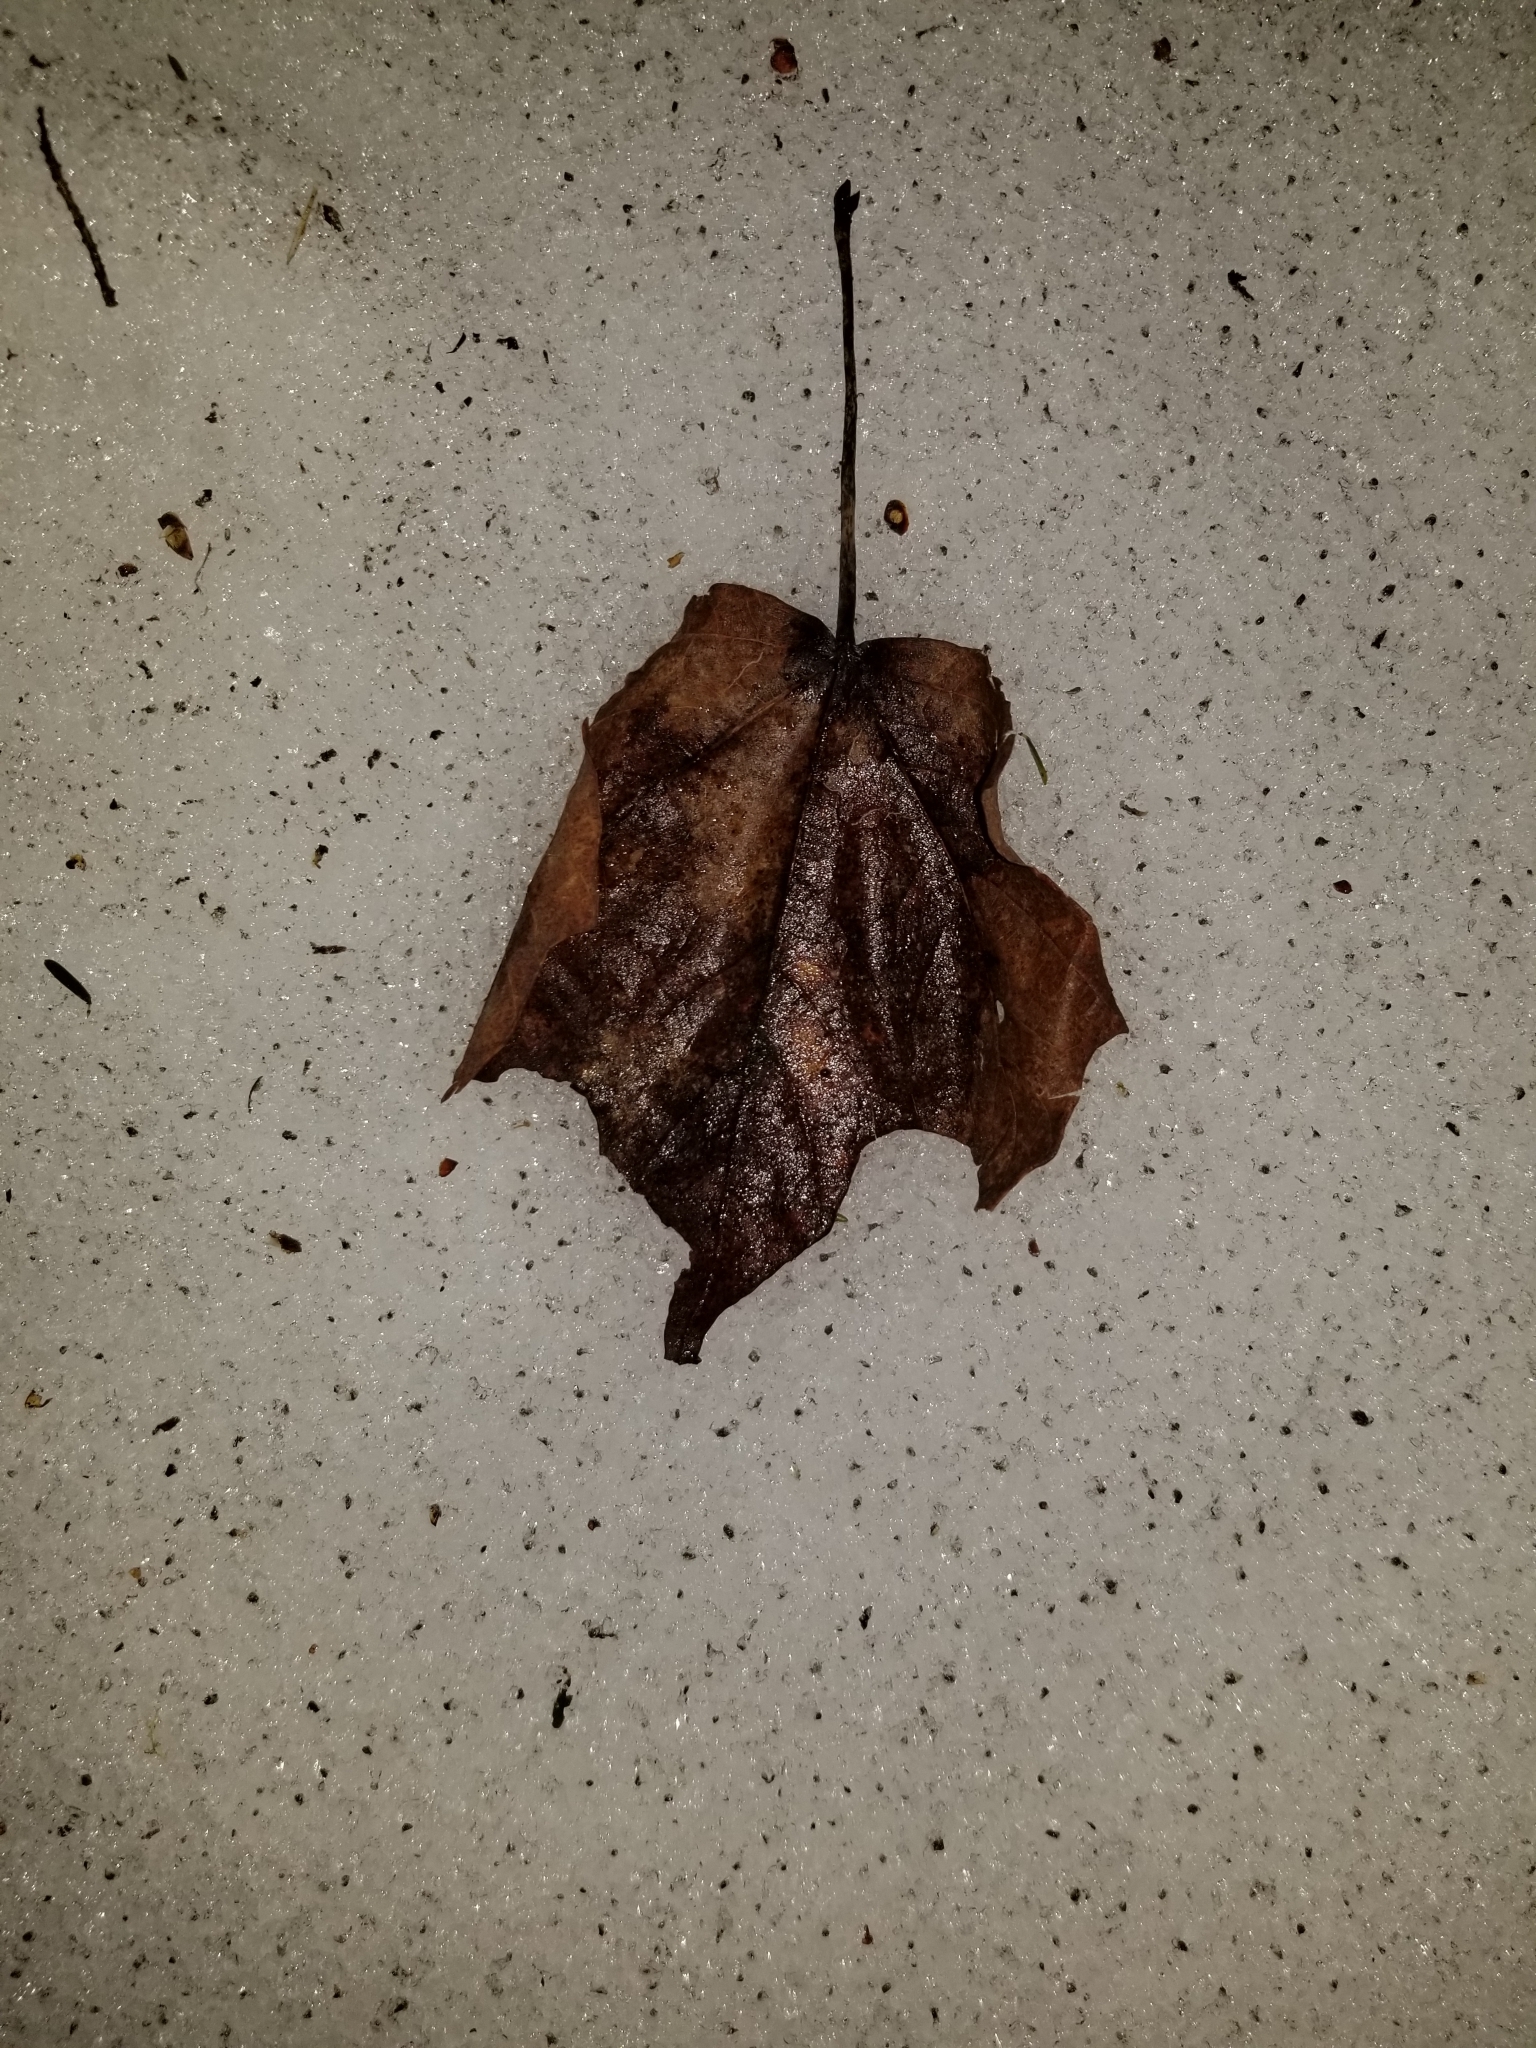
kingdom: Plantae
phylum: Tracheophyta
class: Magnoliopsida
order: Sapindales
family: Sapindaceae
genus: Acer
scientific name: Acer saccharum
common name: Sugar maple
